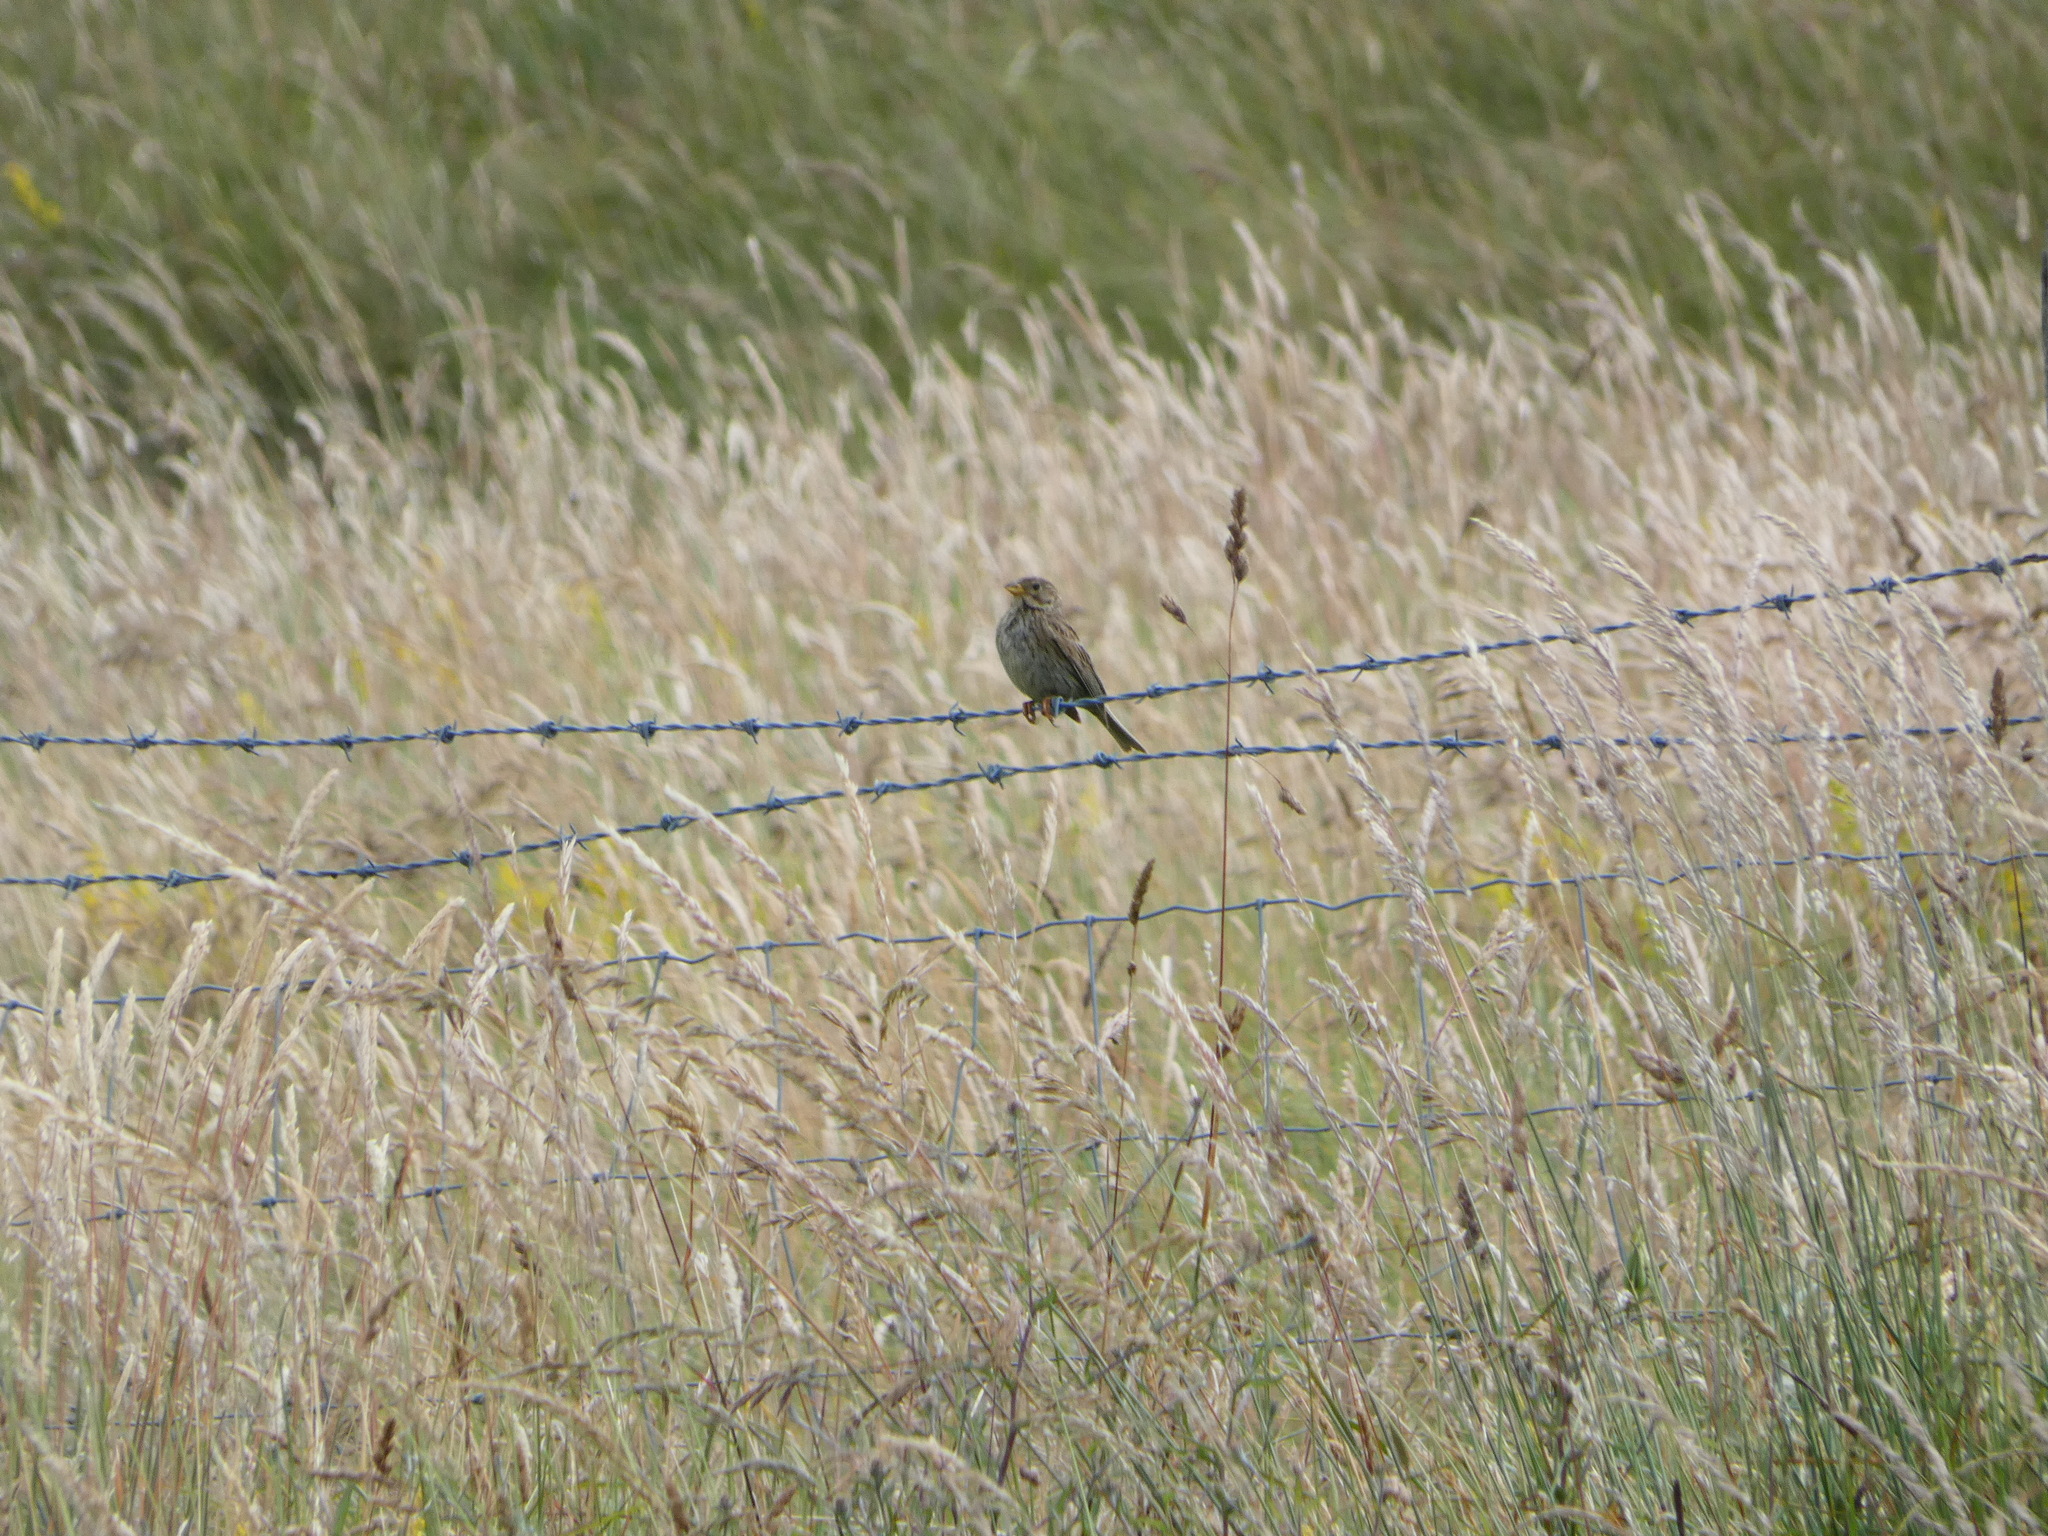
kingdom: Animalia
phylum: Chordata
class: Aves
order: Passeriformes
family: Emberizidae
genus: Emberiza
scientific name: Emberiza calandra
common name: Corn bunting
